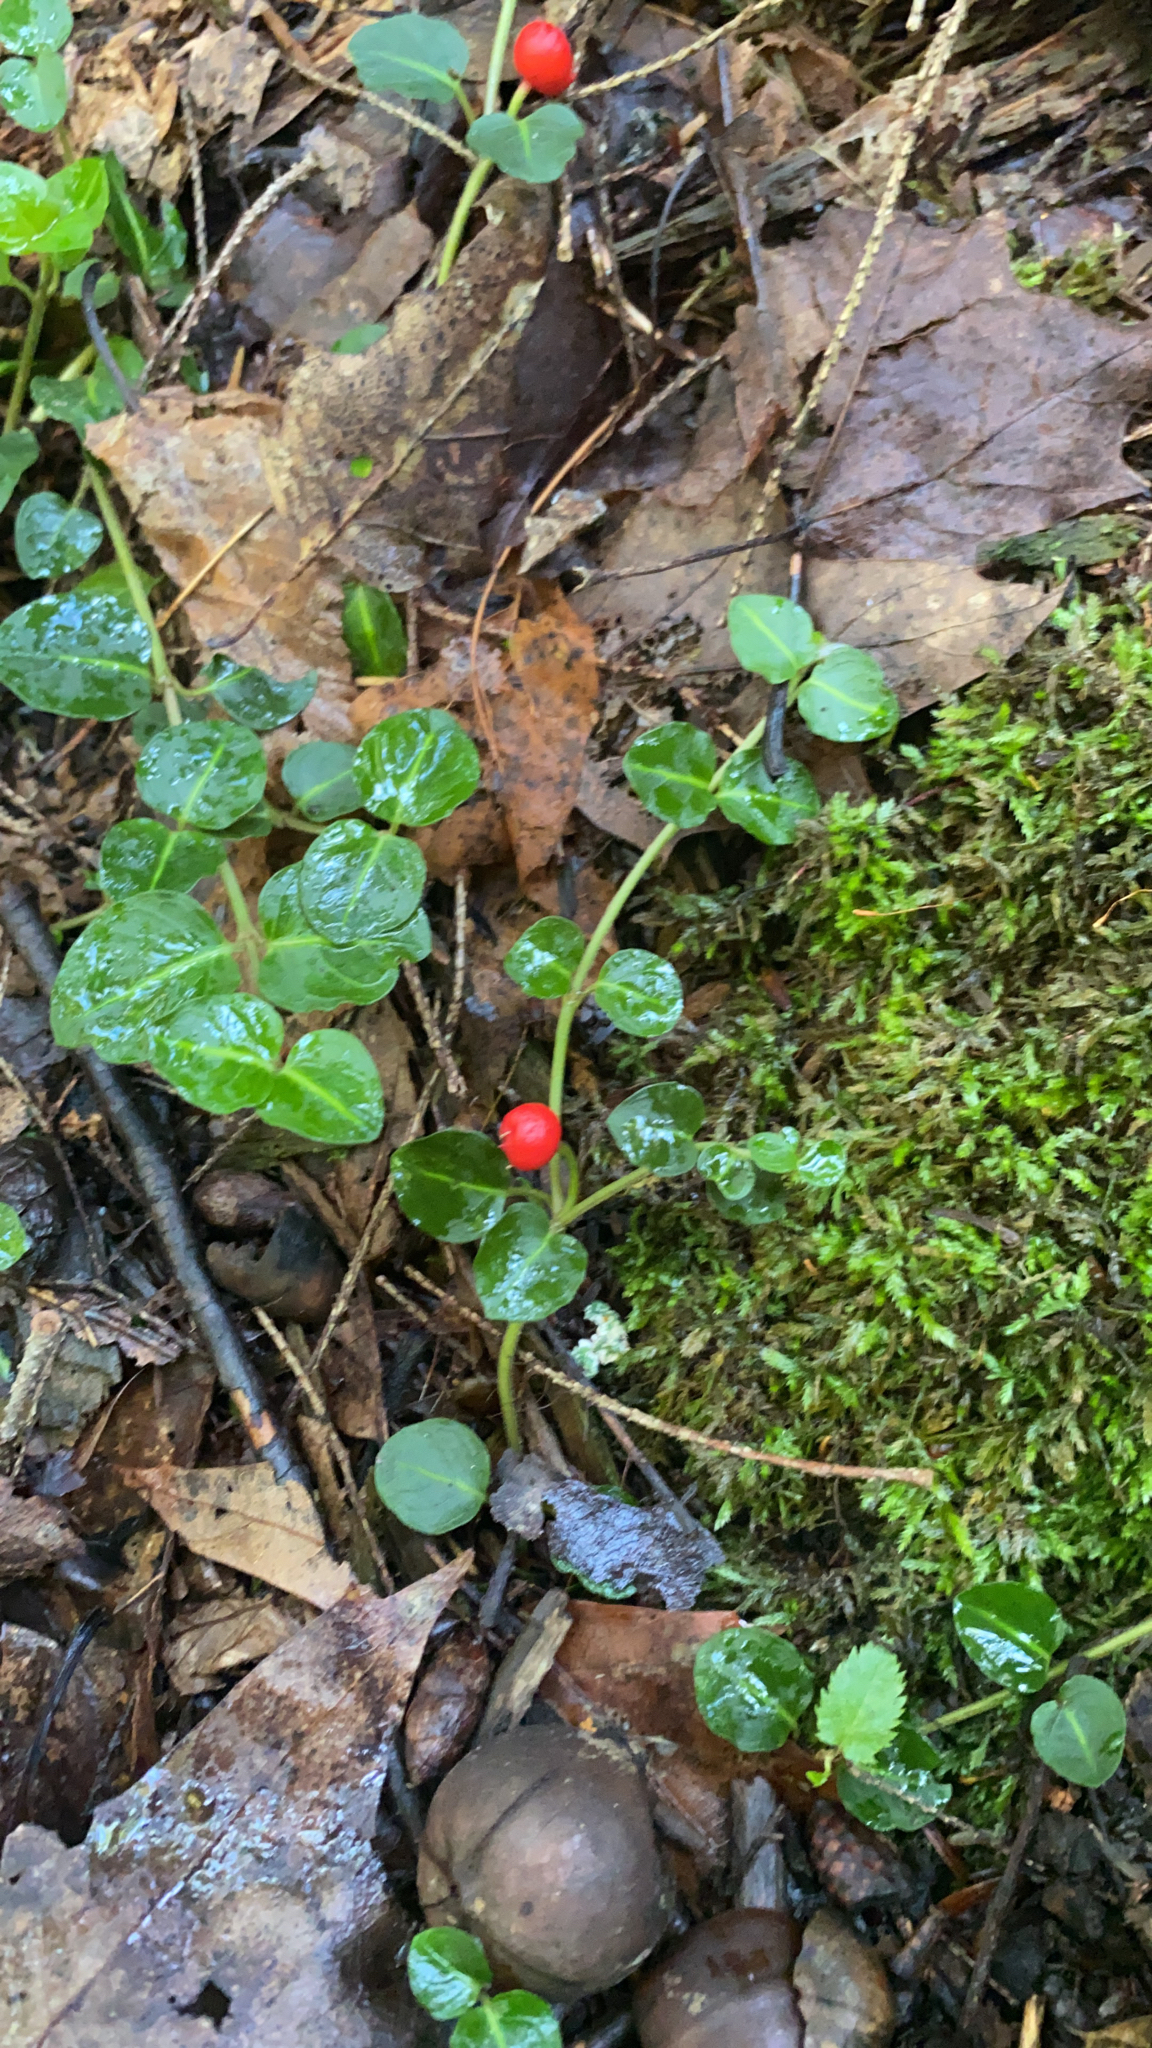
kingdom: Plantae
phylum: Tracheophyta
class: Magnoliopsida
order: Gentianales
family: Rubiaceae
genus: Mitchella
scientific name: Mitchella repens
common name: Partridge-berry
